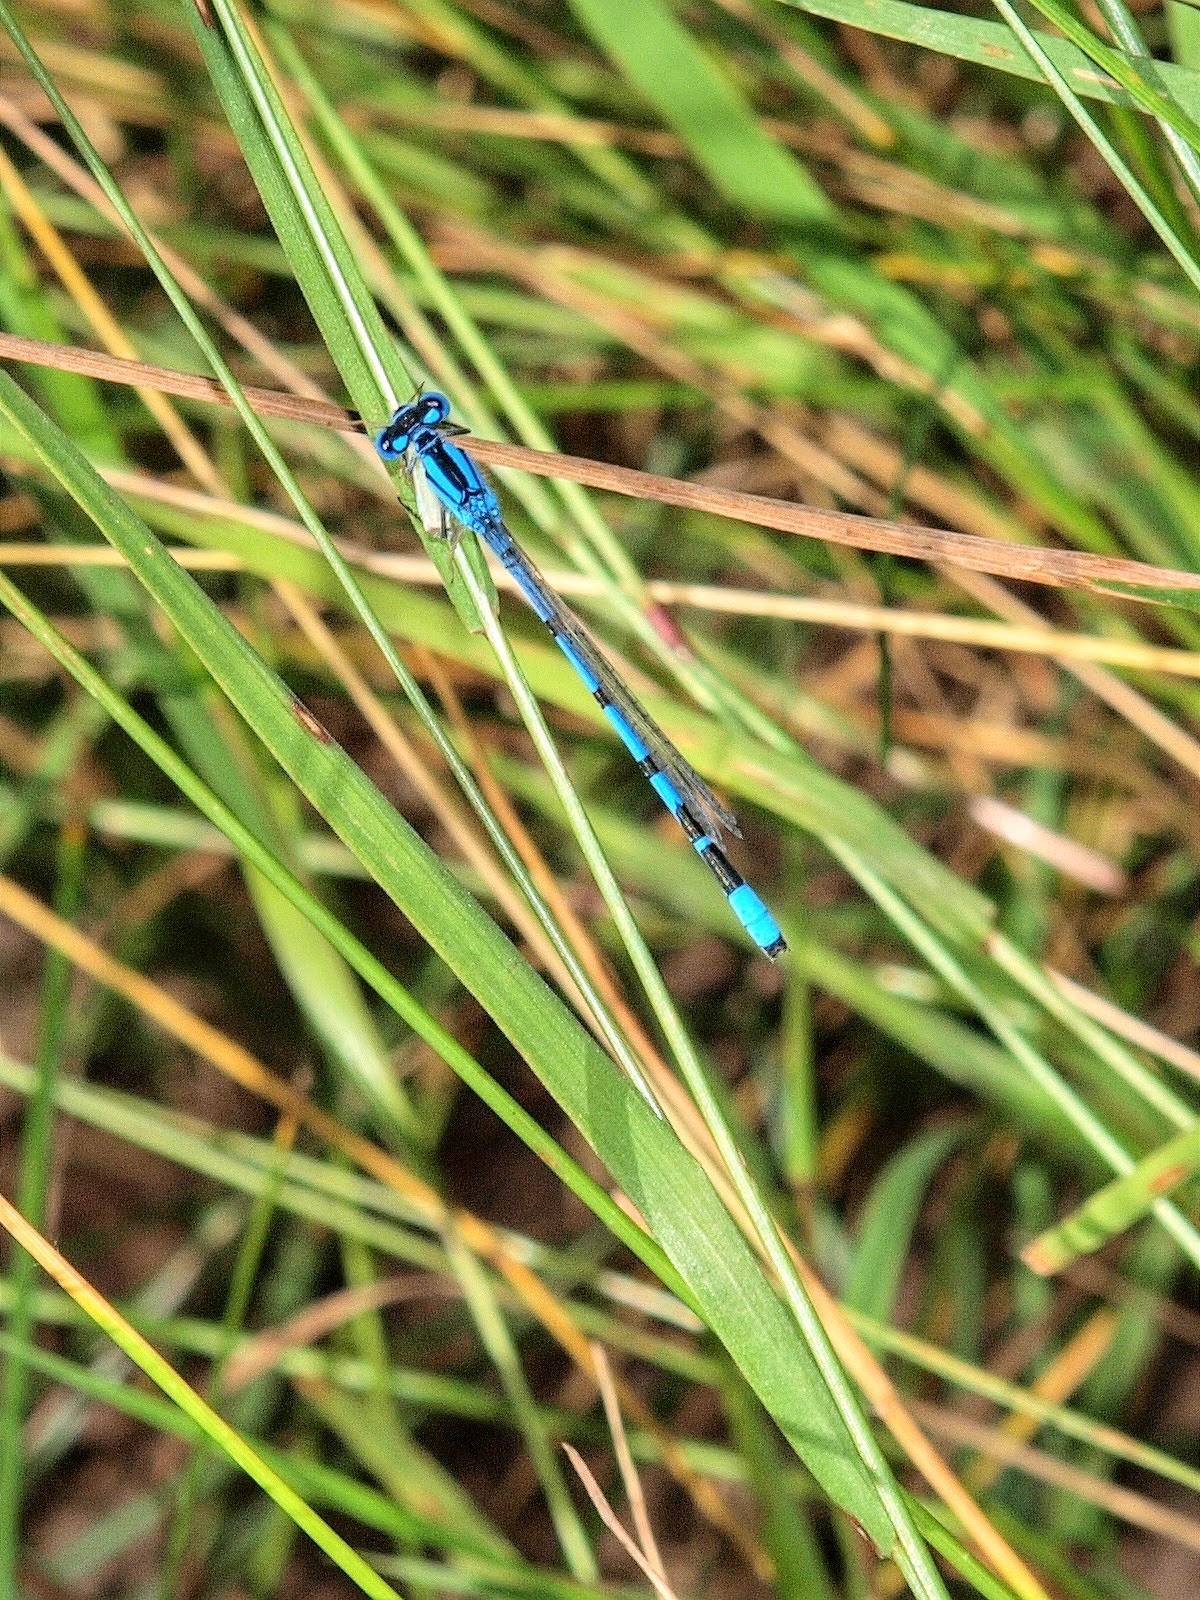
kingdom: Animalia
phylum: Arthropoda
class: Insecta
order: Odonata
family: Coenagrionidae
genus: Enallagma
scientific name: Enallagma cyathigerum
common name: Common blue damselfly
